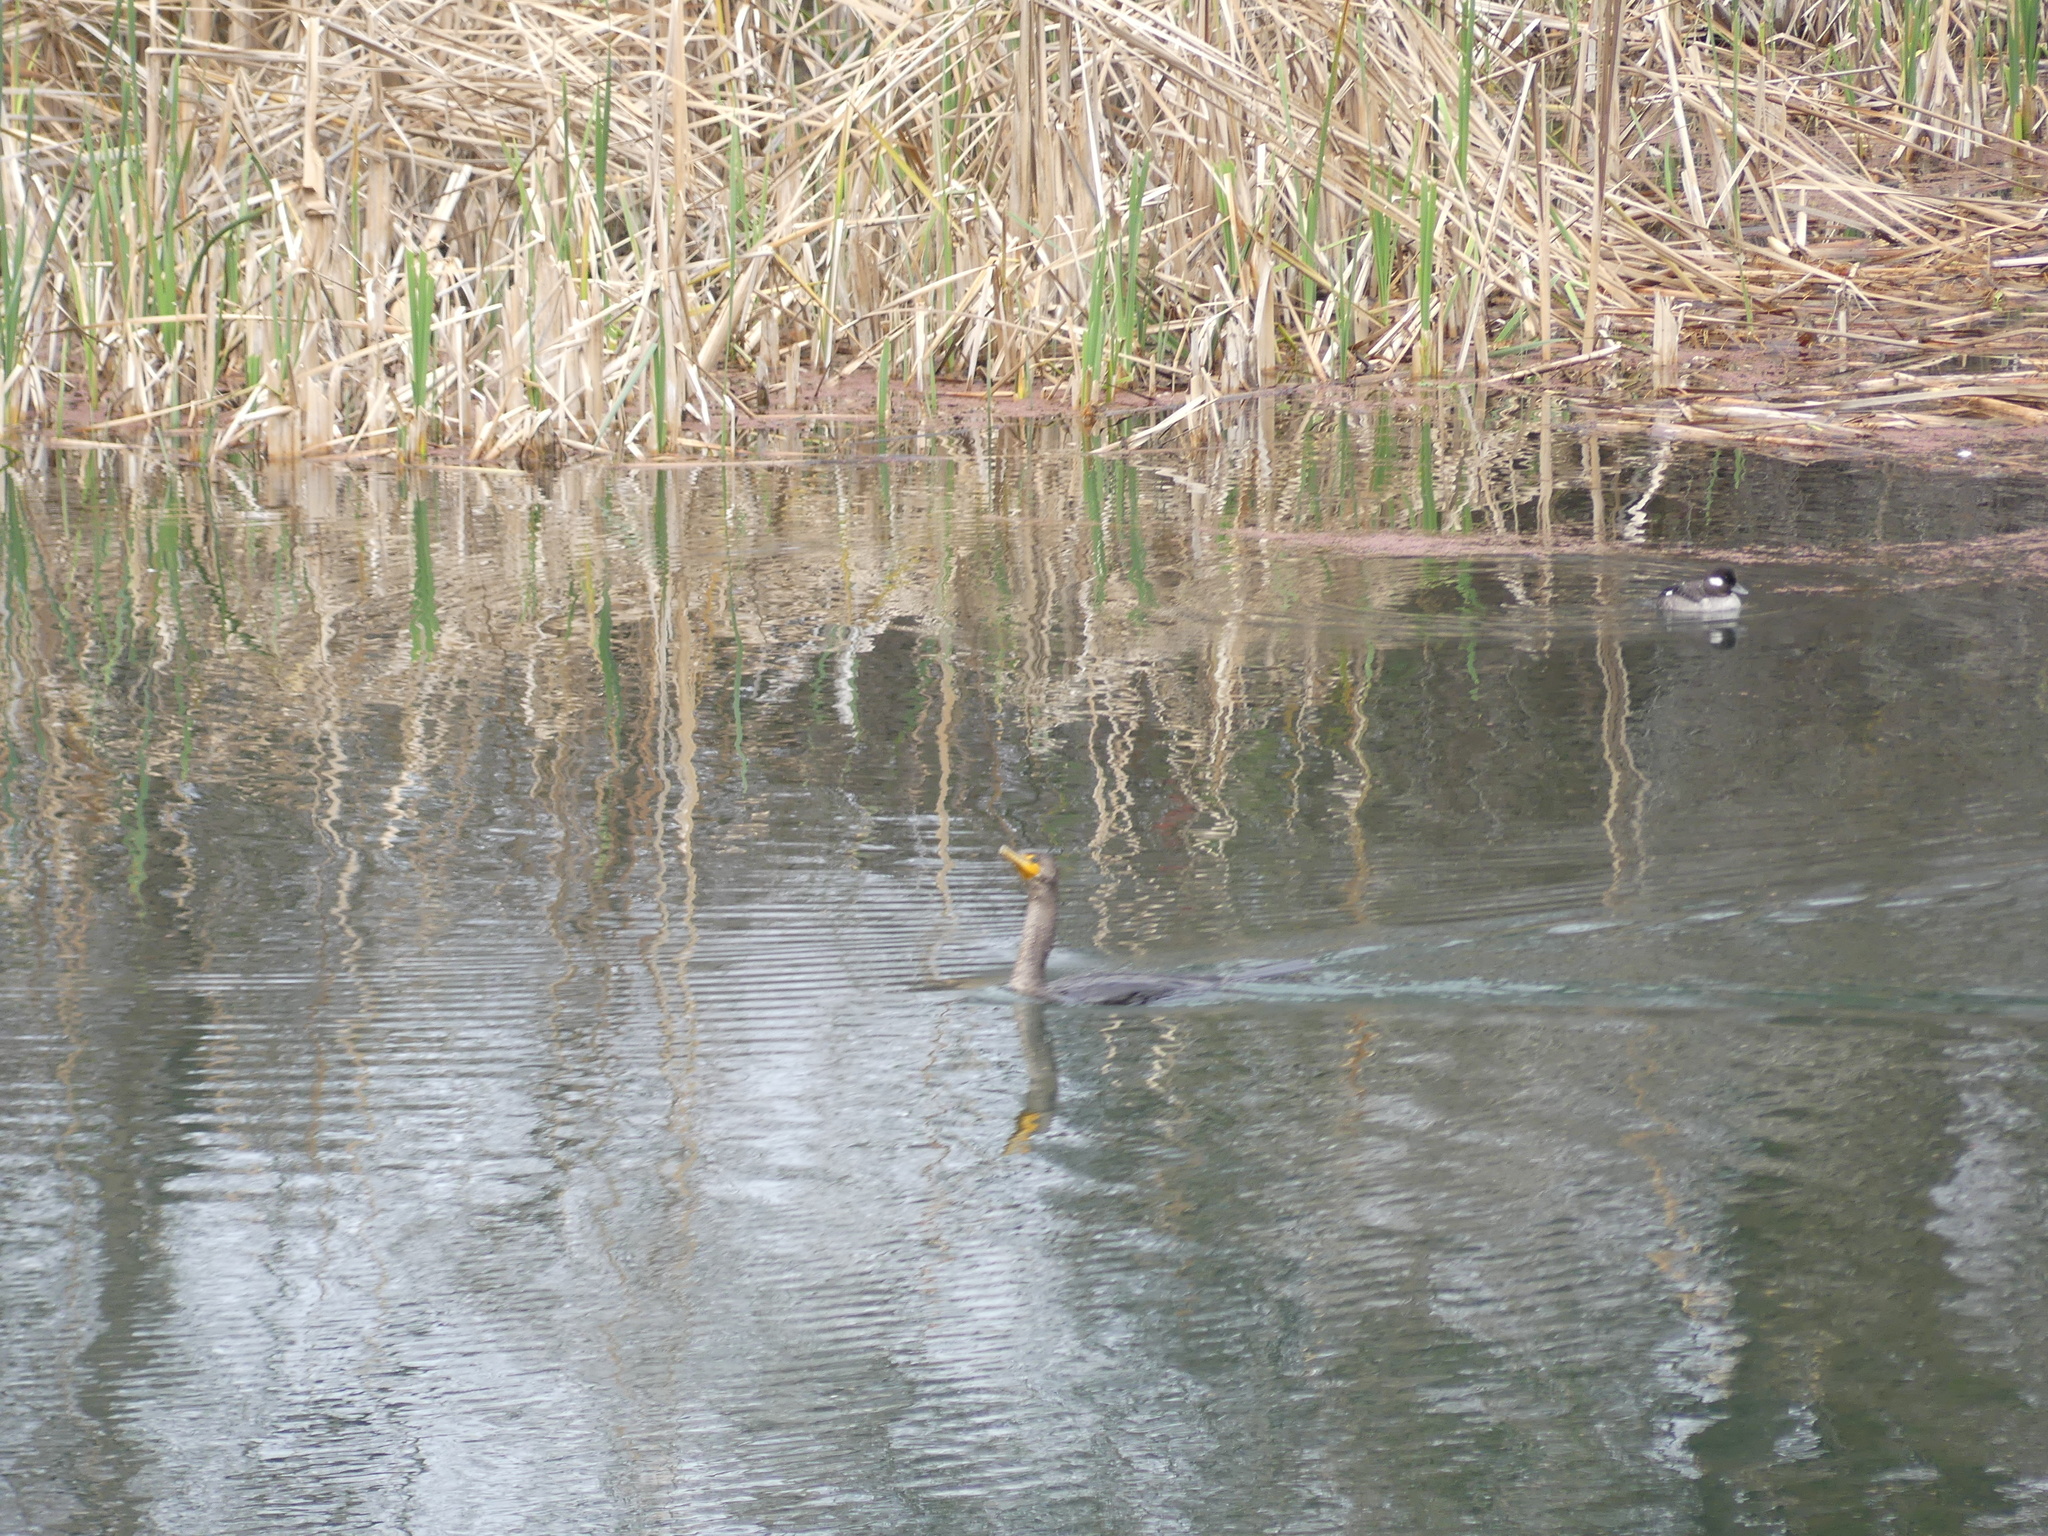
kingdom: Animalia
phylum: Chordata
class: Aves
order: Suliformes
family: Phalacrocoracidae
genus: Phalacrocorax
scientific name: Phalacrocorax auritus
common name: Double-crested cormorant
